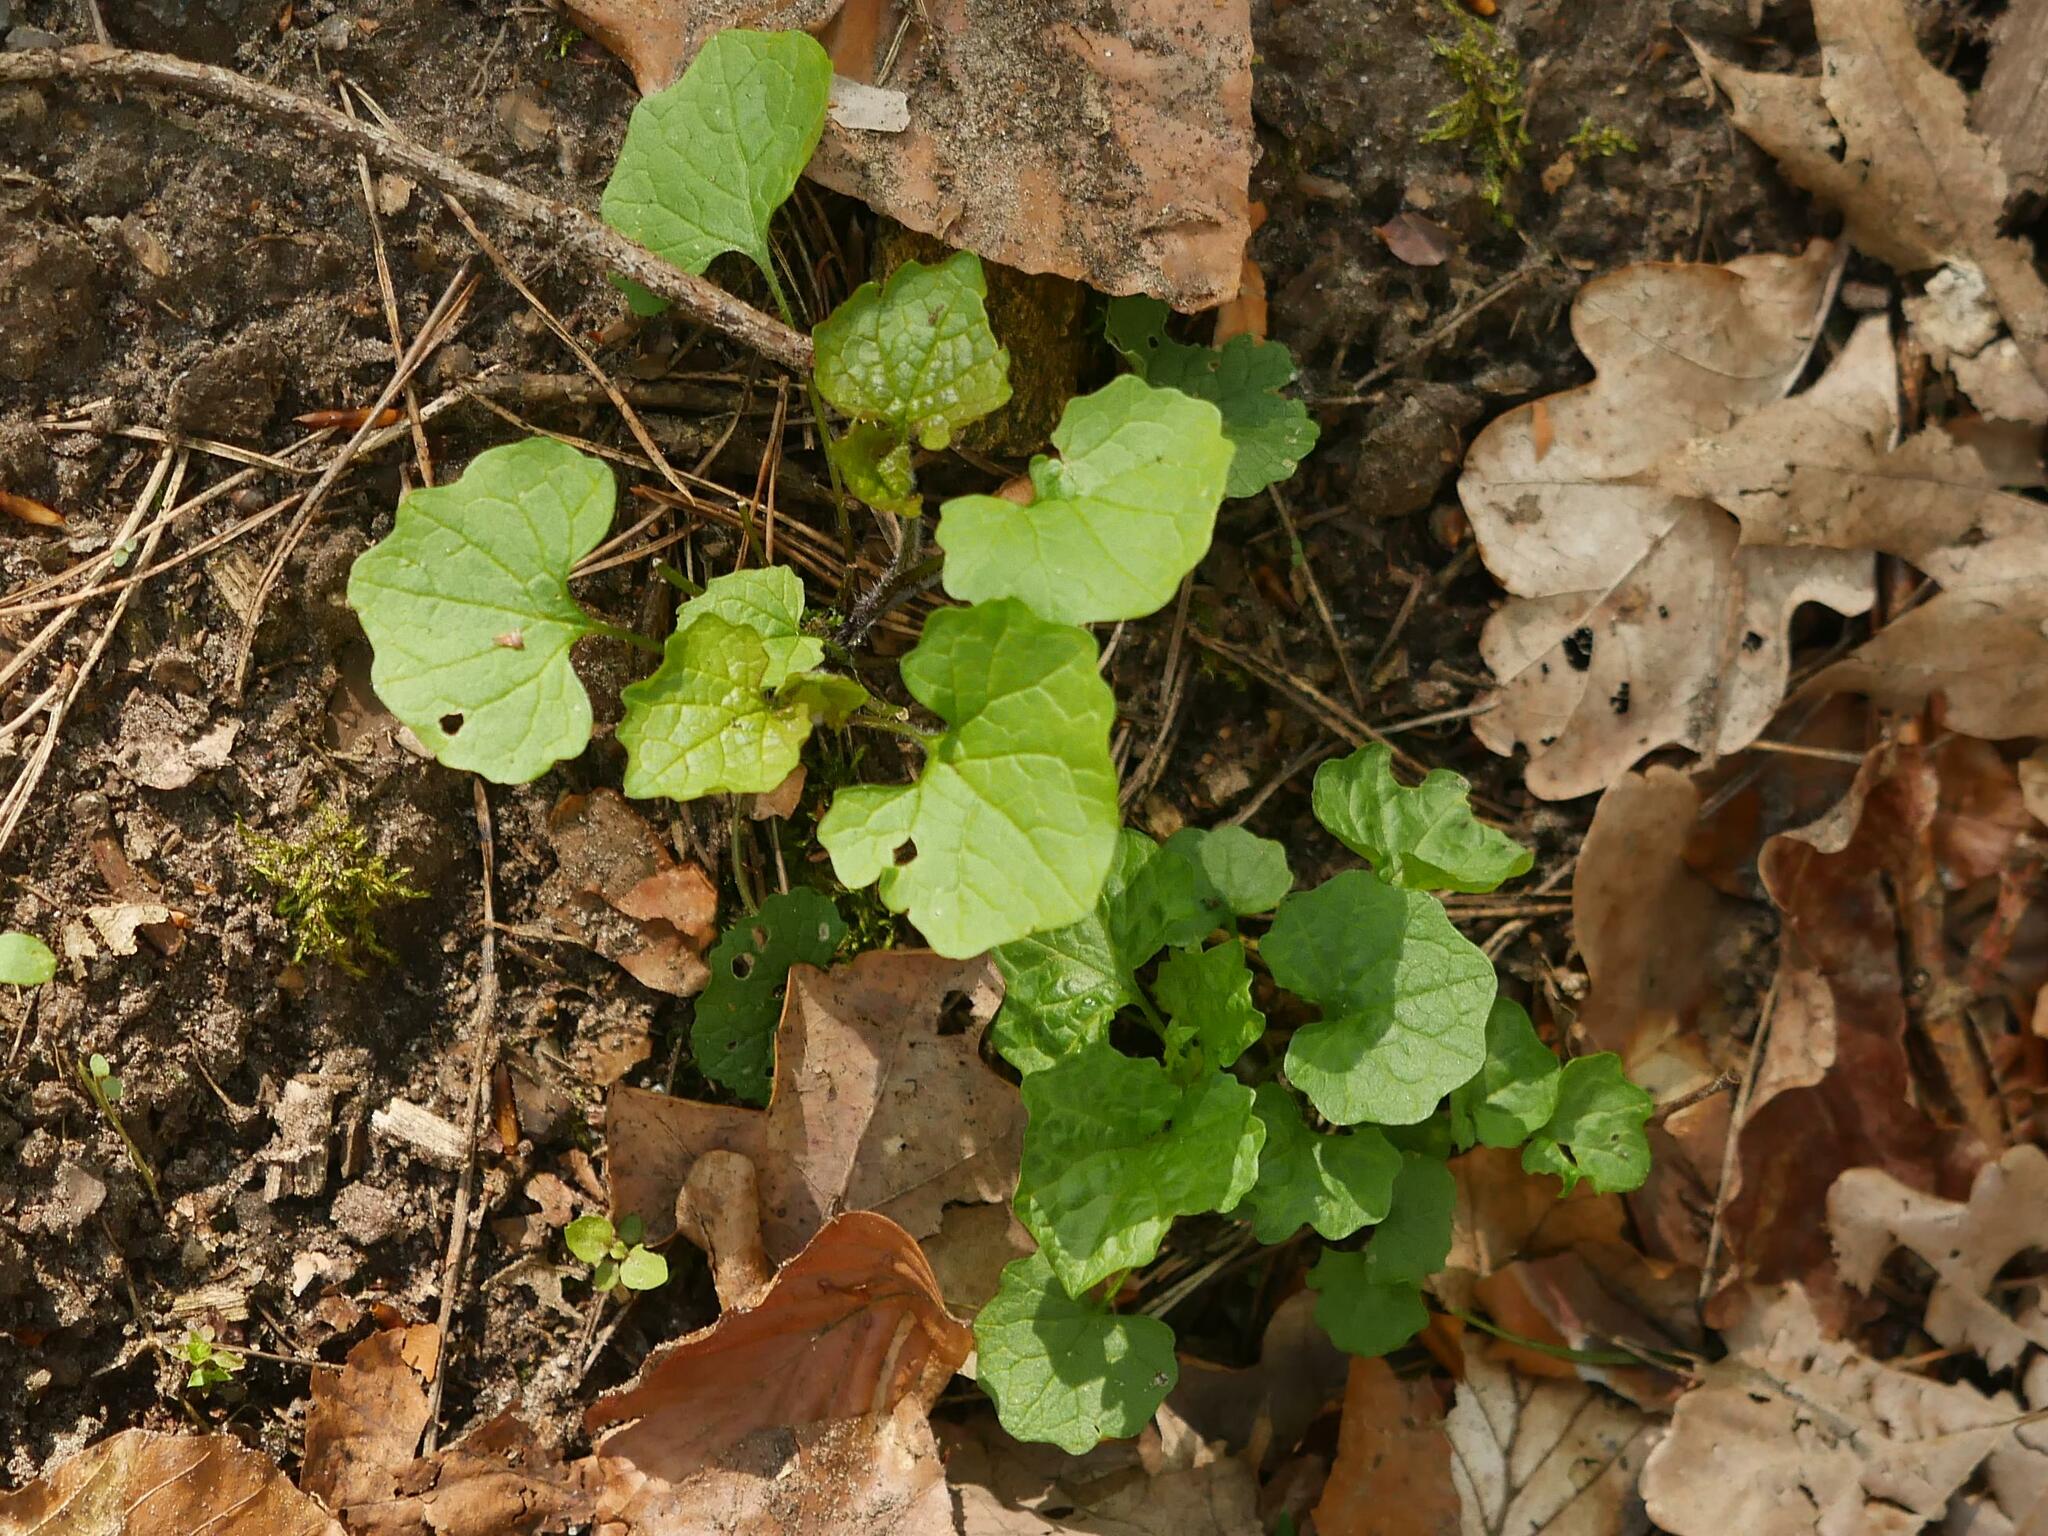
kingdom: Plantae
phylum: Tracheophyta
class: Magnoliopsida
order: Brassicales
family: Brassicaceae
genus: Alliaria
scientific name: Alliaria petiolata
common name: Garlic mustard
